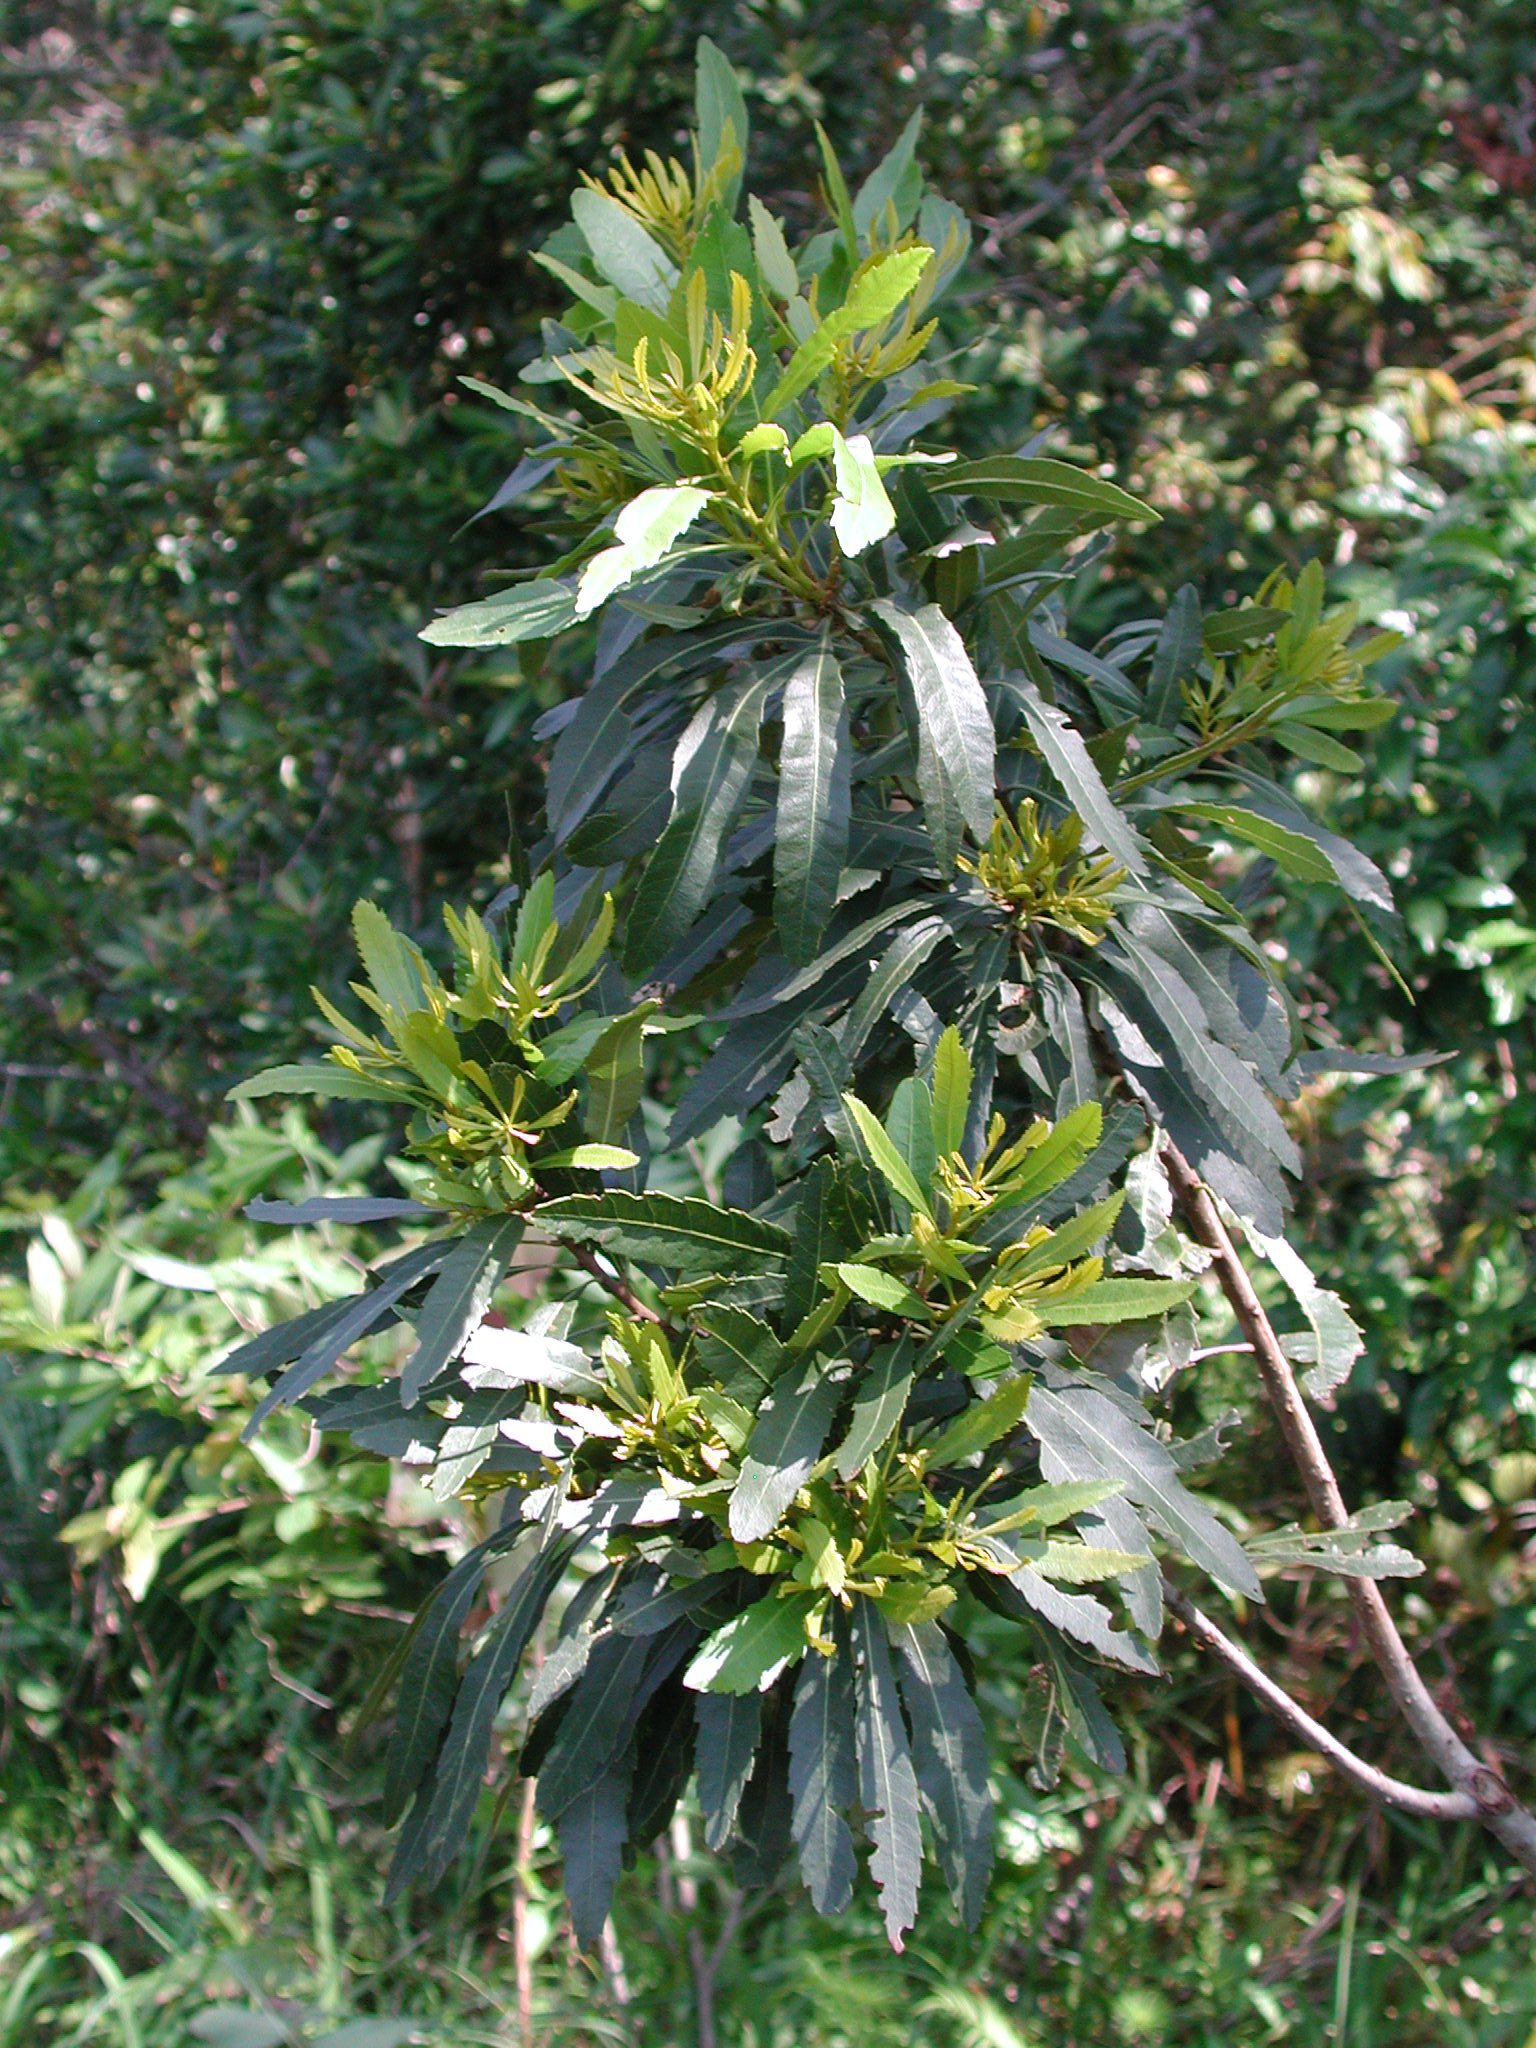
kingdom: Plantae
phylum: Tracheophyta
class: Magnoliopsida
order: Fagales
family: Myricaceae
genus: Morella
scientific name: Morella serrata
